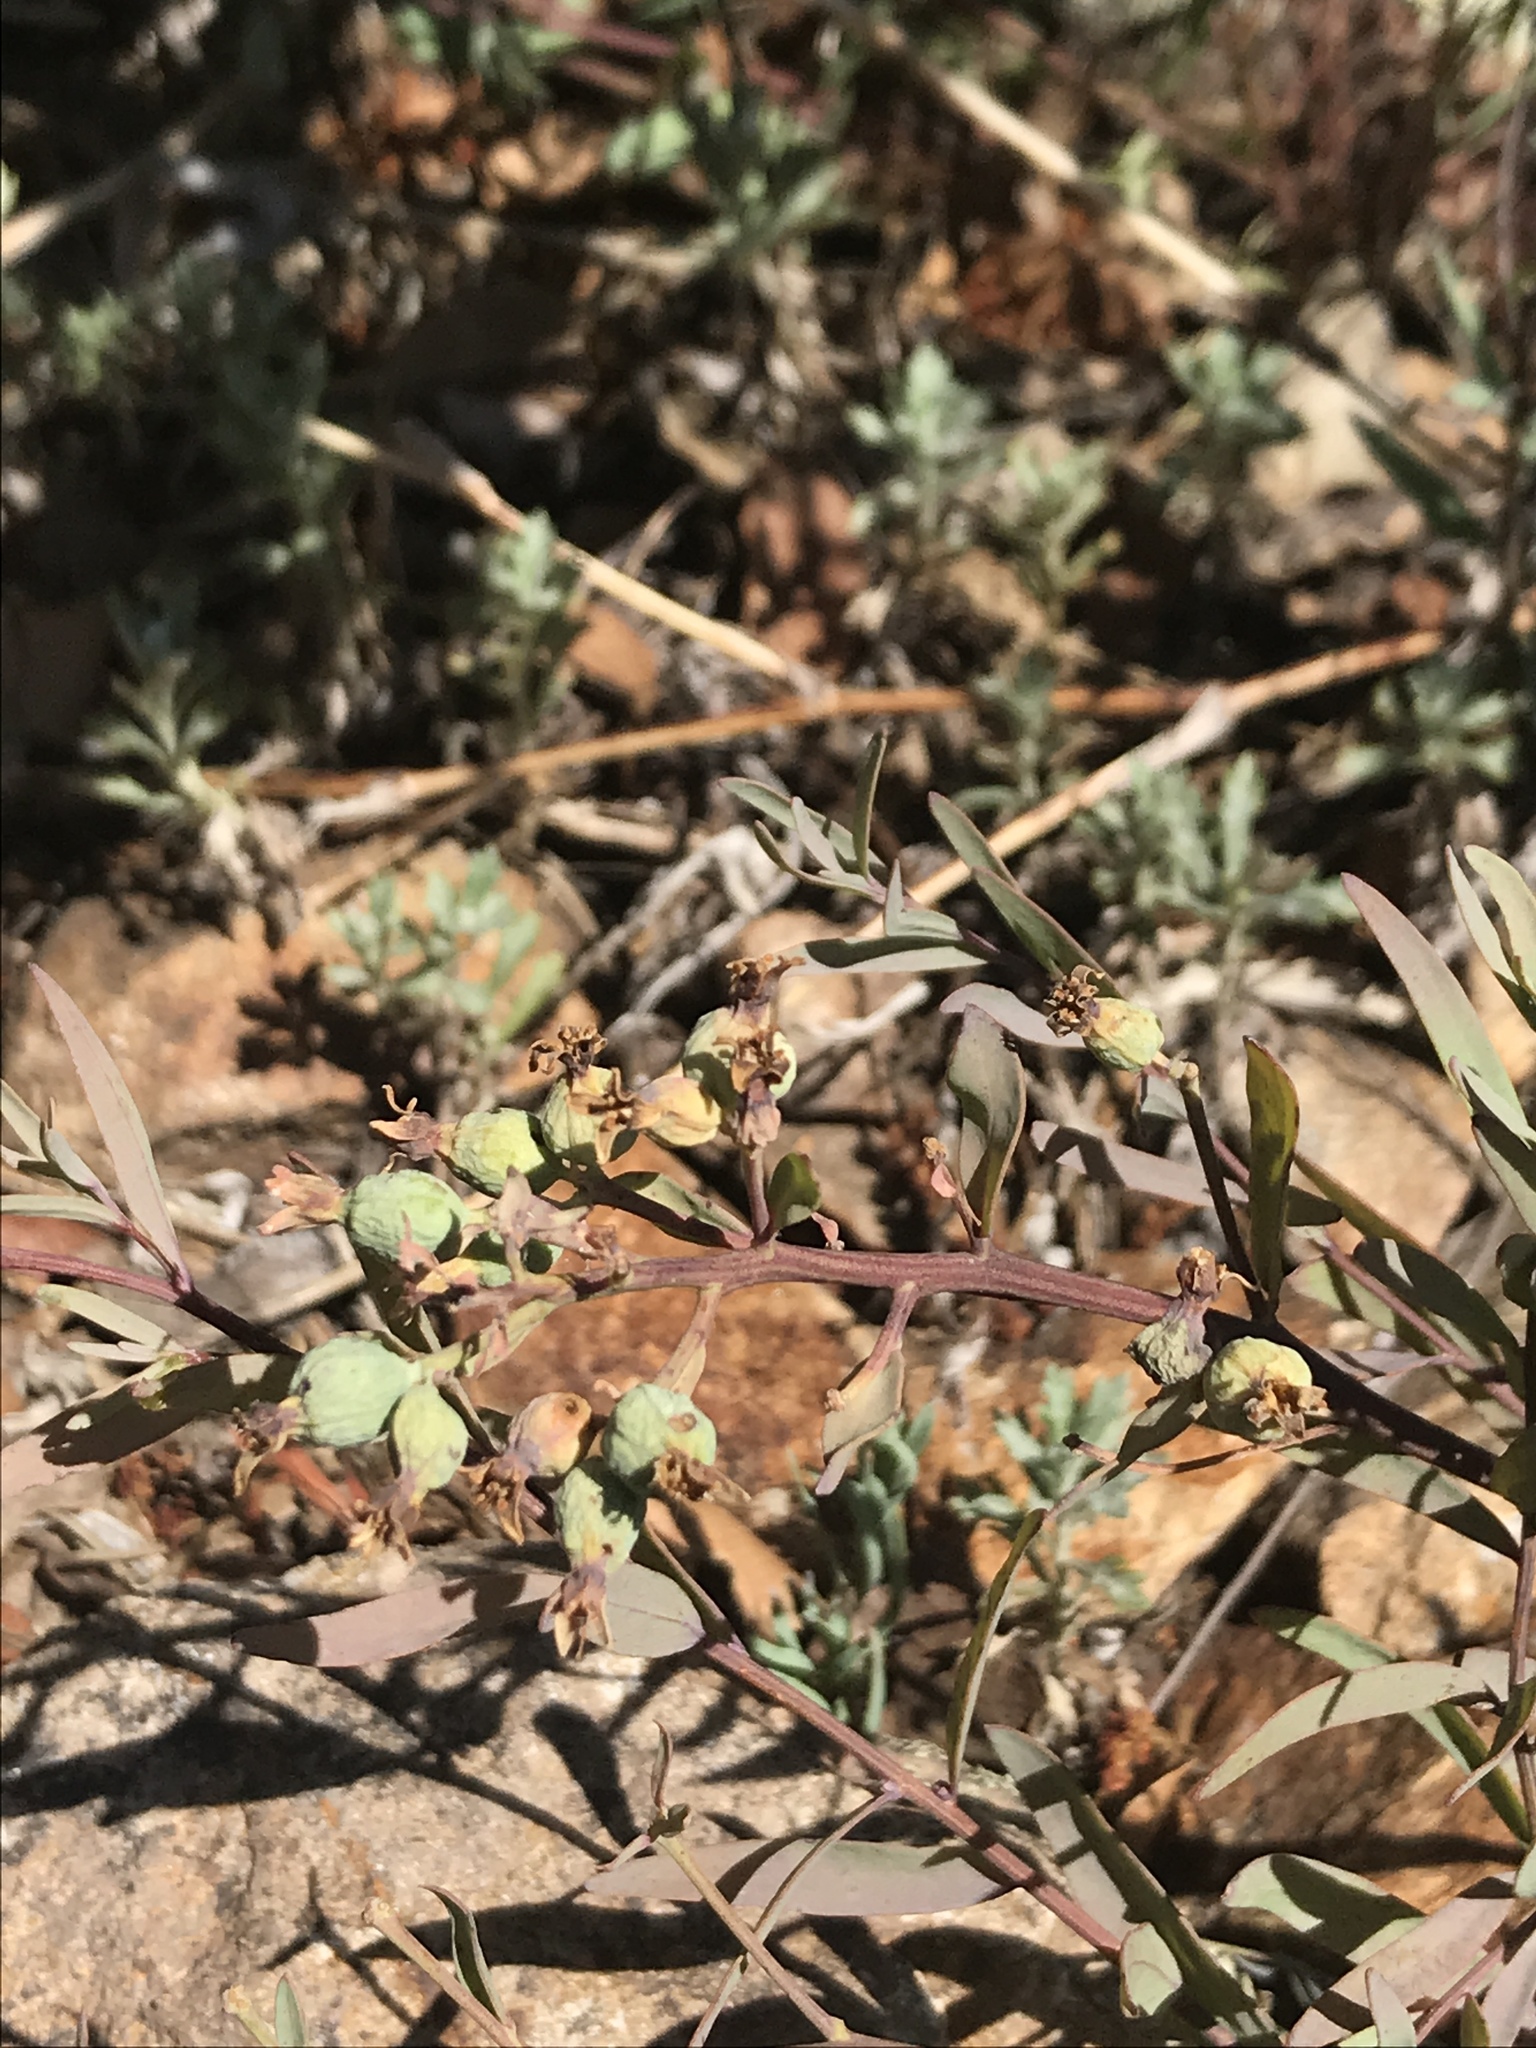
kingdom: Plantae
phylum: Tracheophyta
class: Magnoliopsida
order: Santalales
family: Comandraceae
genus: Comandra
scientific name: Comandra umbellata
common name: Bastard toadflax
